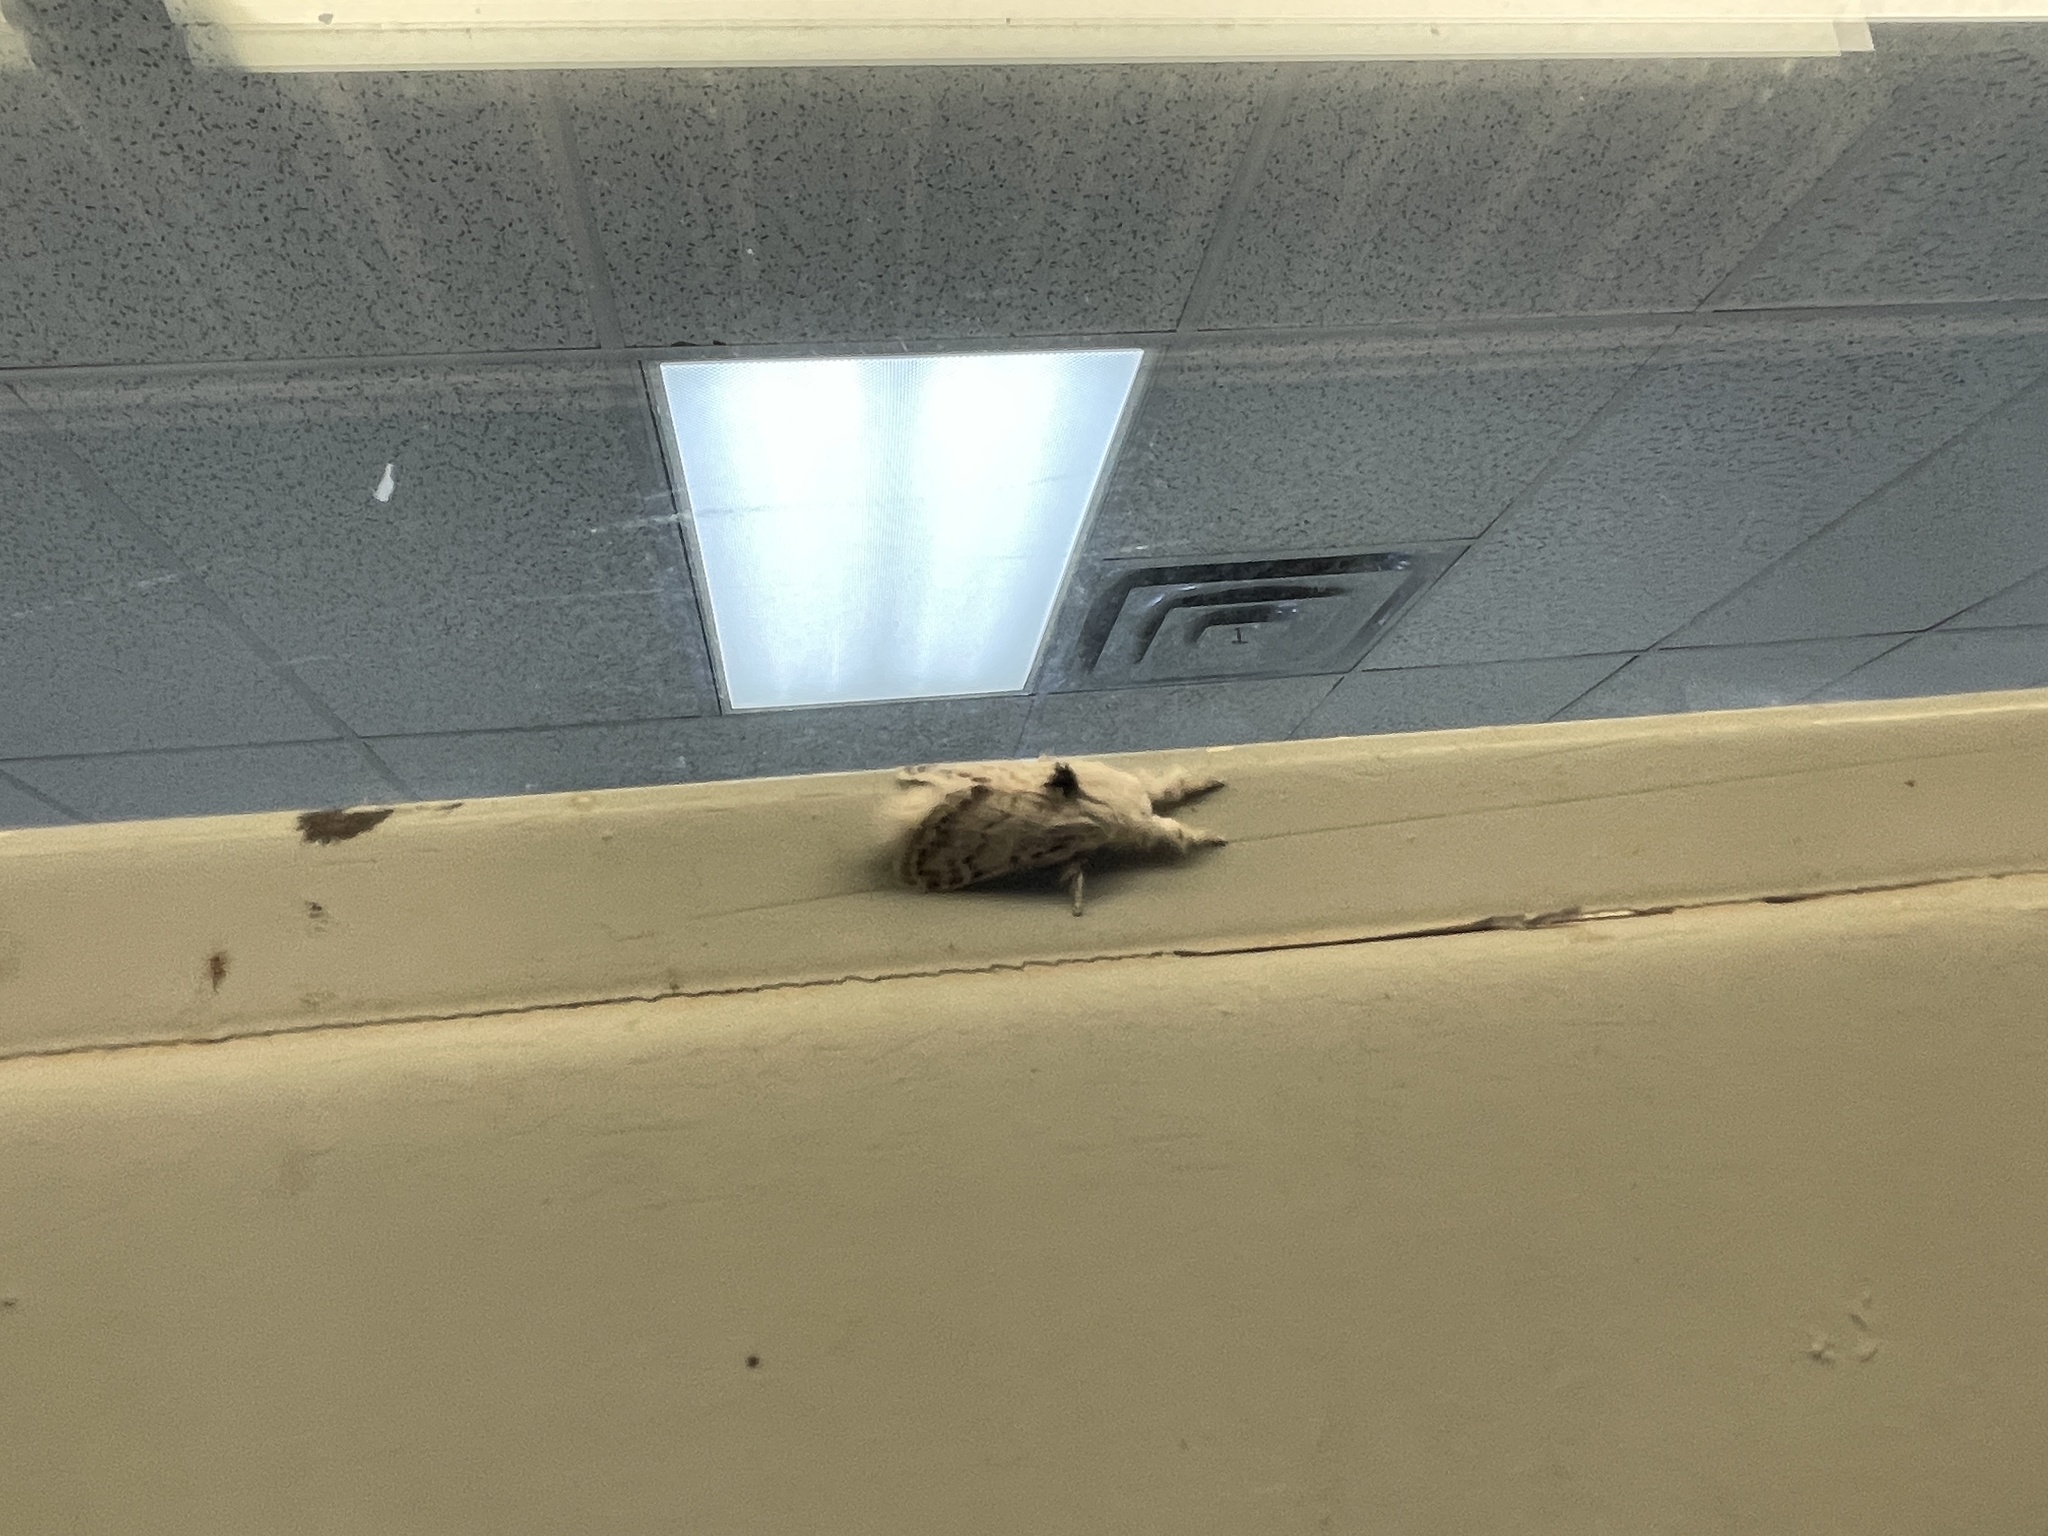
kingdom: Animalia
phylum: Arthropoda
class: Insecta
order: Lepidoptera
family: Lasiocampidae
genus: Apotolype
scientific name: Apotolype brevicrista
